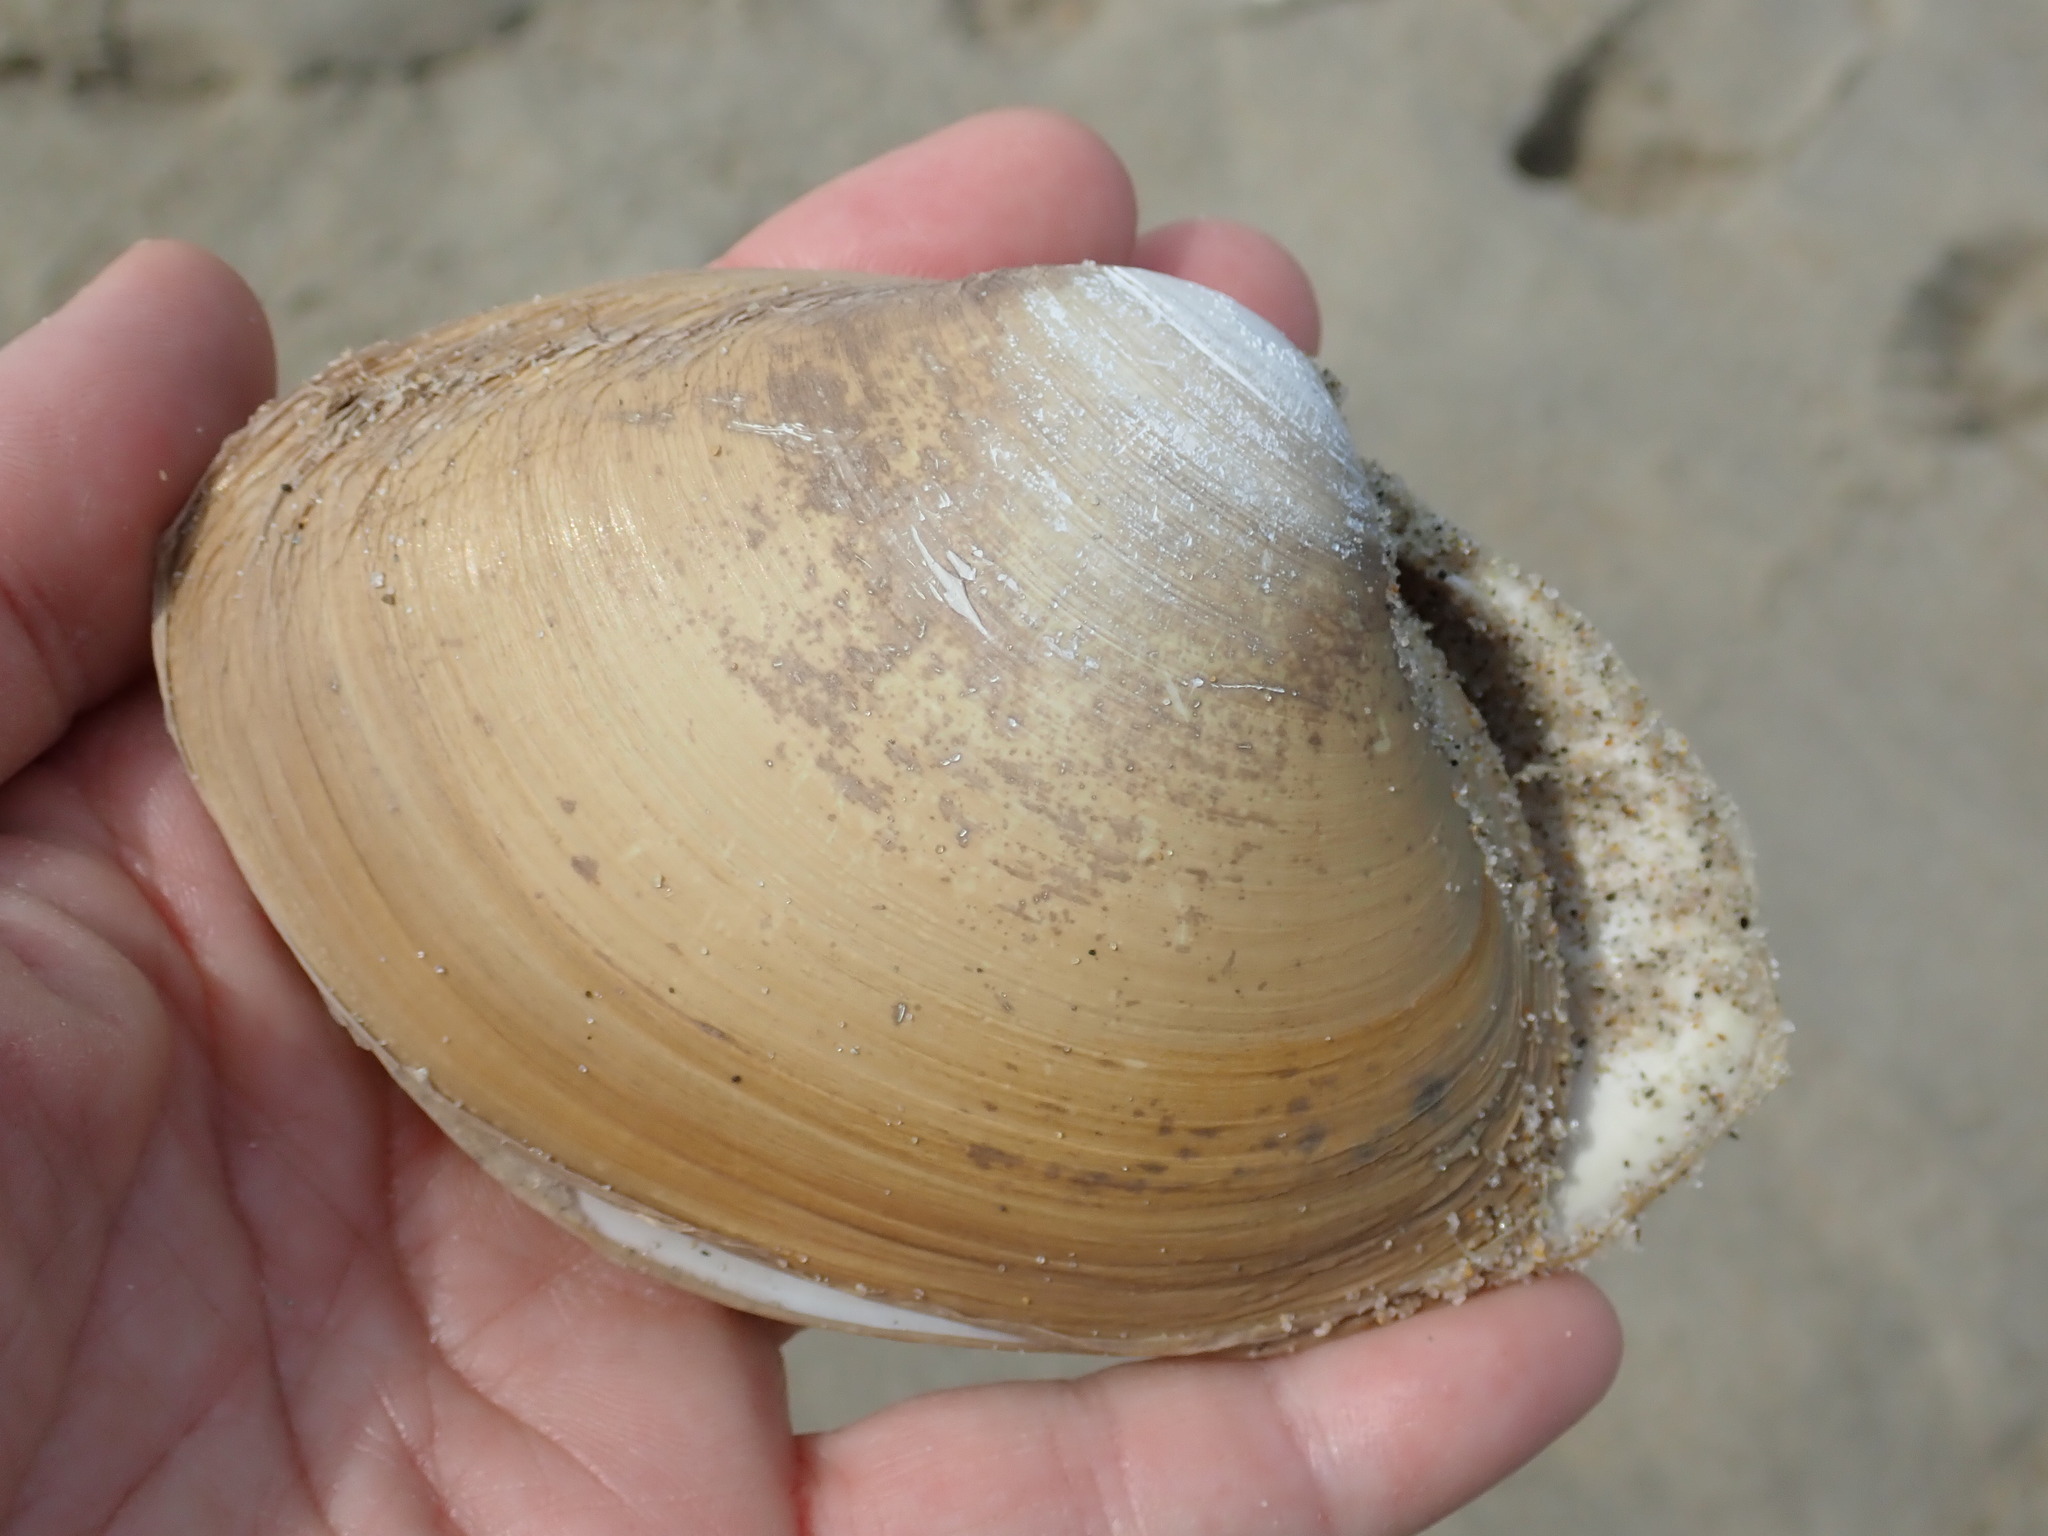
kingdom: Animalia
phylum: Mollusca
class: Bivalvia
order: Venerida
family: Mactridae
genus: Spisula
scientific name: Spisula solidissima
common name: Atlantic surf clam
